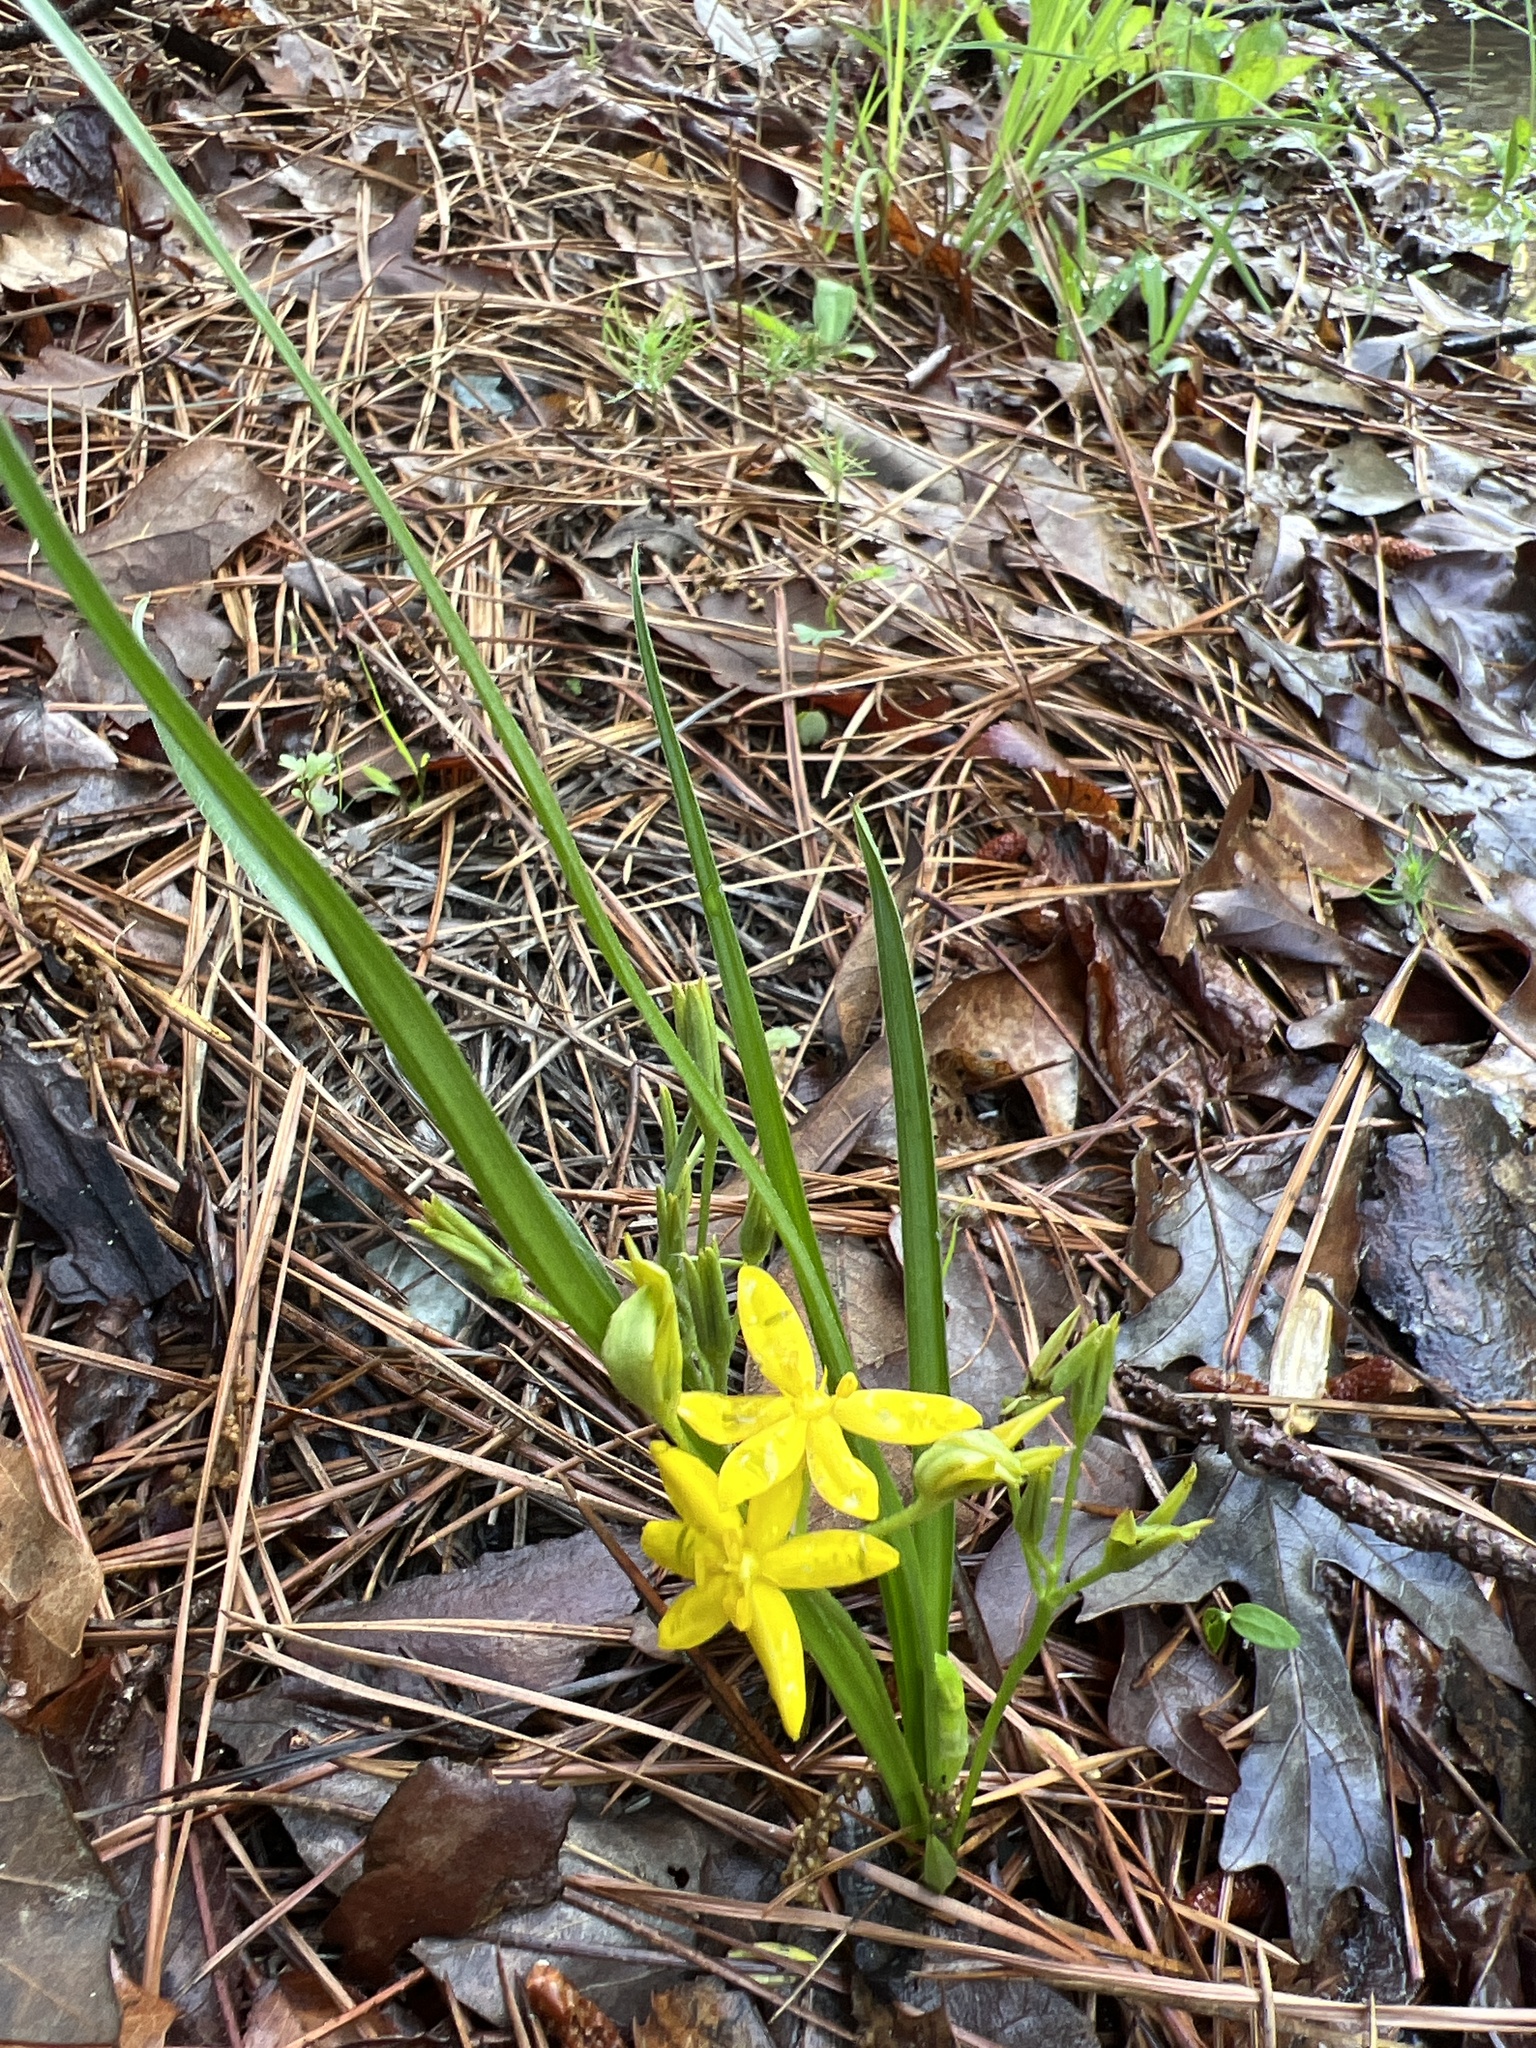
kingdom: Plantae
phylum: Tracheophyta
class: Liliopsida
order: Asparagales
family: Hypoxidaceae
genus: Hypoxis
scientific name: Hypoxis hirsuta
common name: Common goldstar
